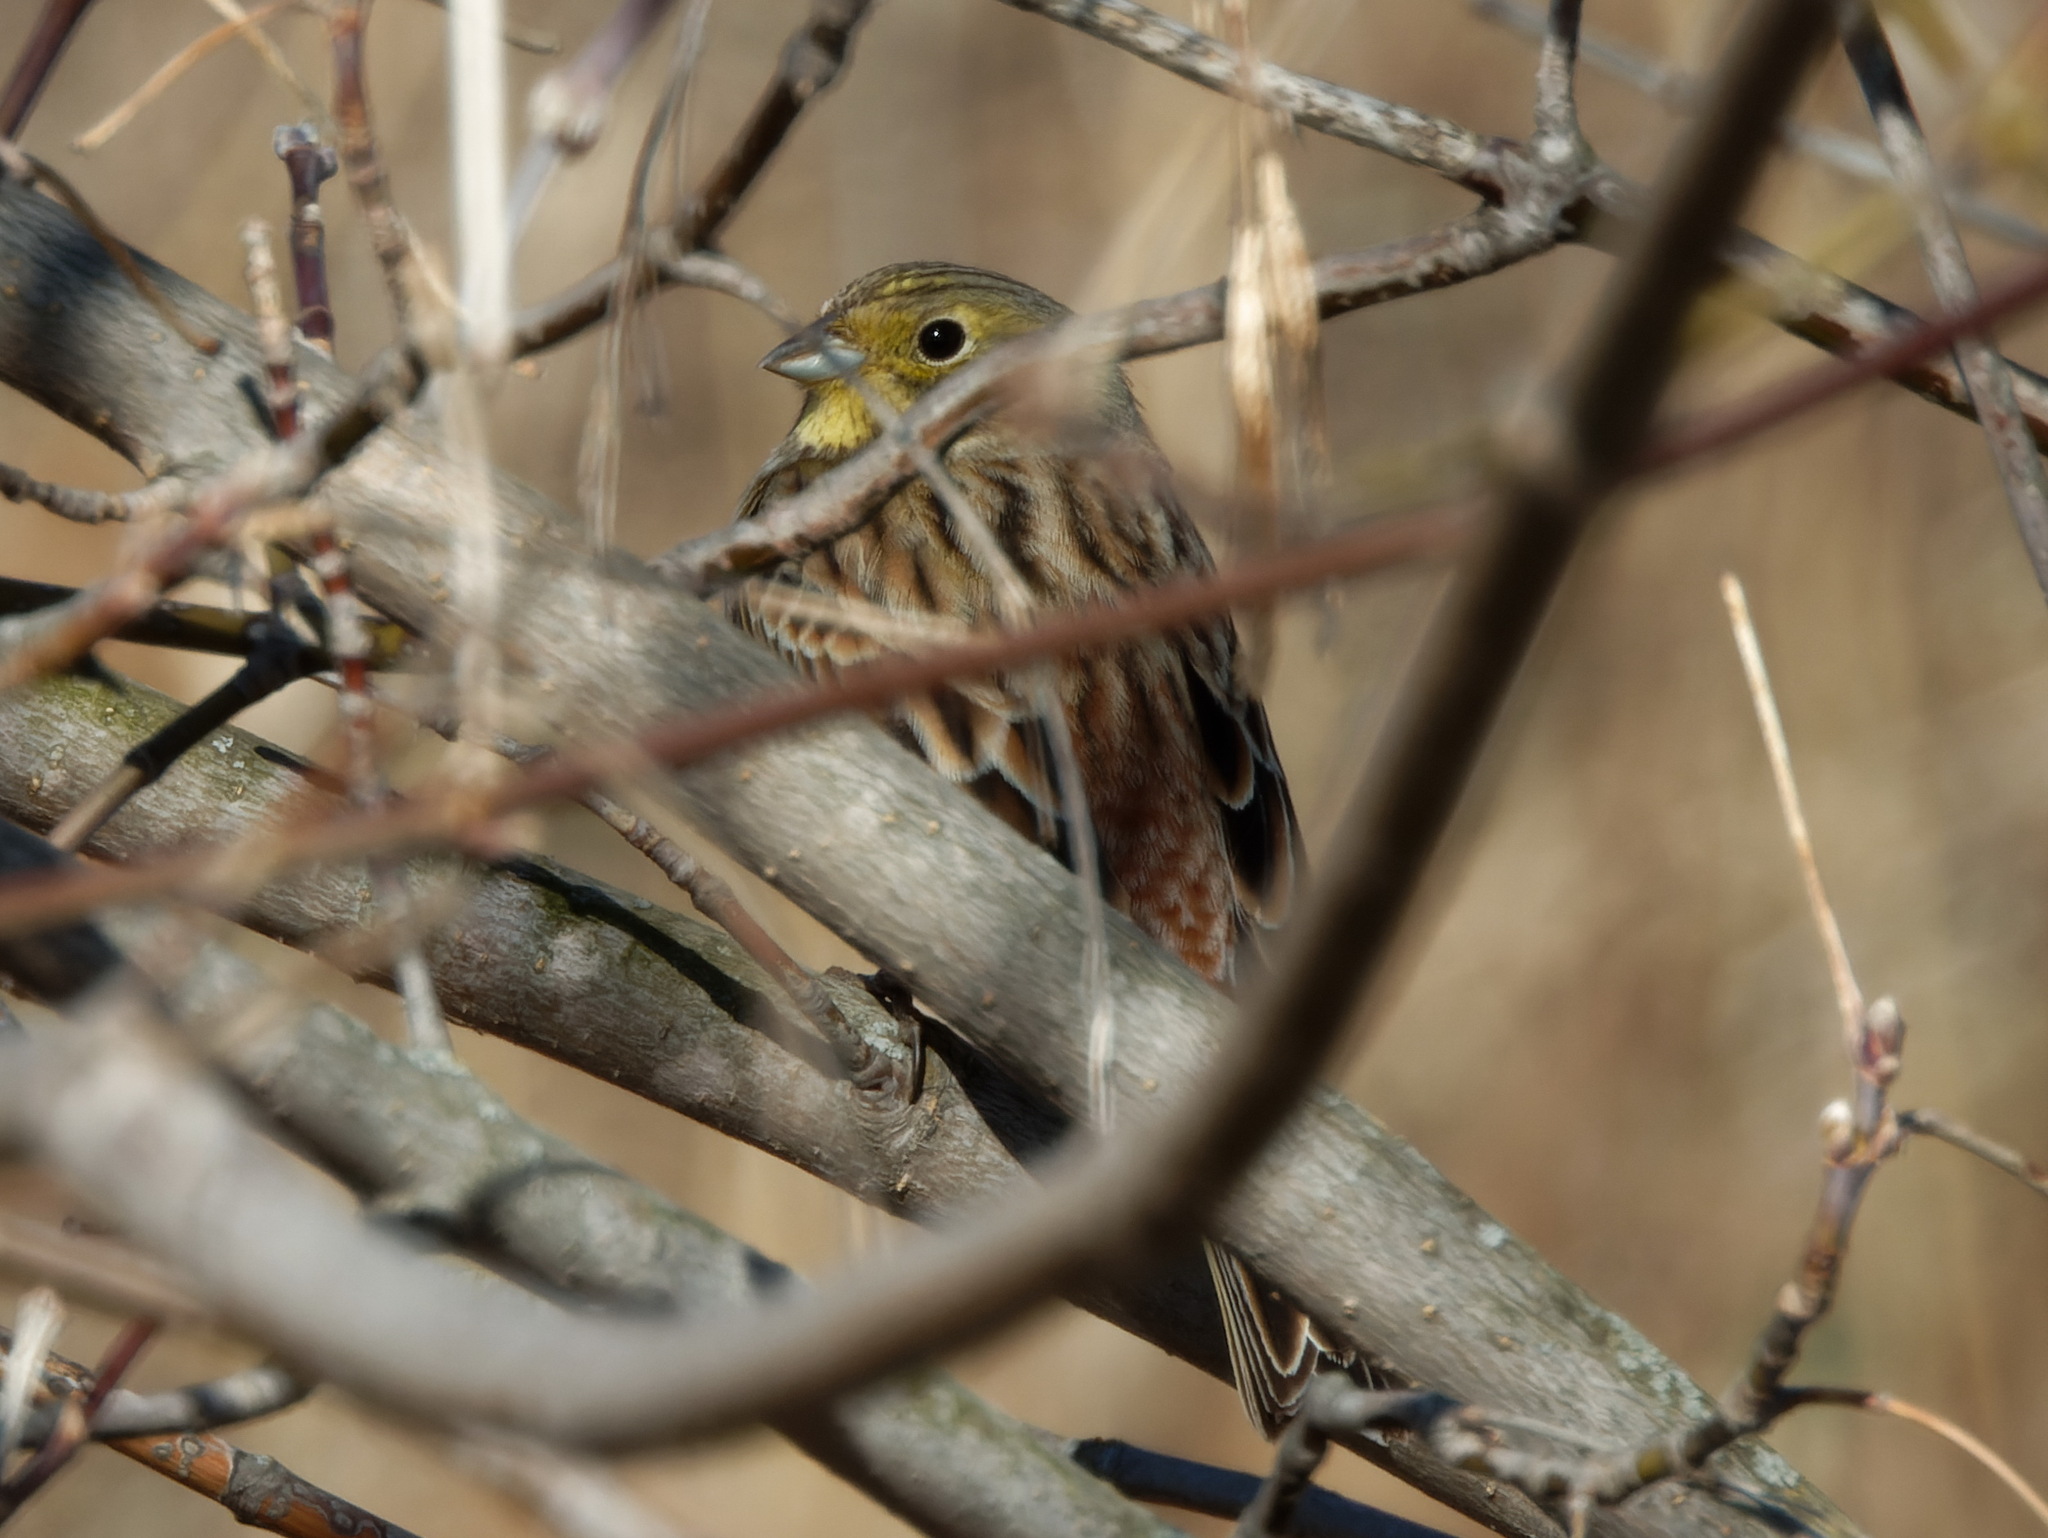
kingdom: Animalia
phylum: Chordata
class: Aves
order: Passeriformes
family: Emberizidae
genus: Emberiza
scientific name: Emberiza citrinella
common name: Yellowhammer
